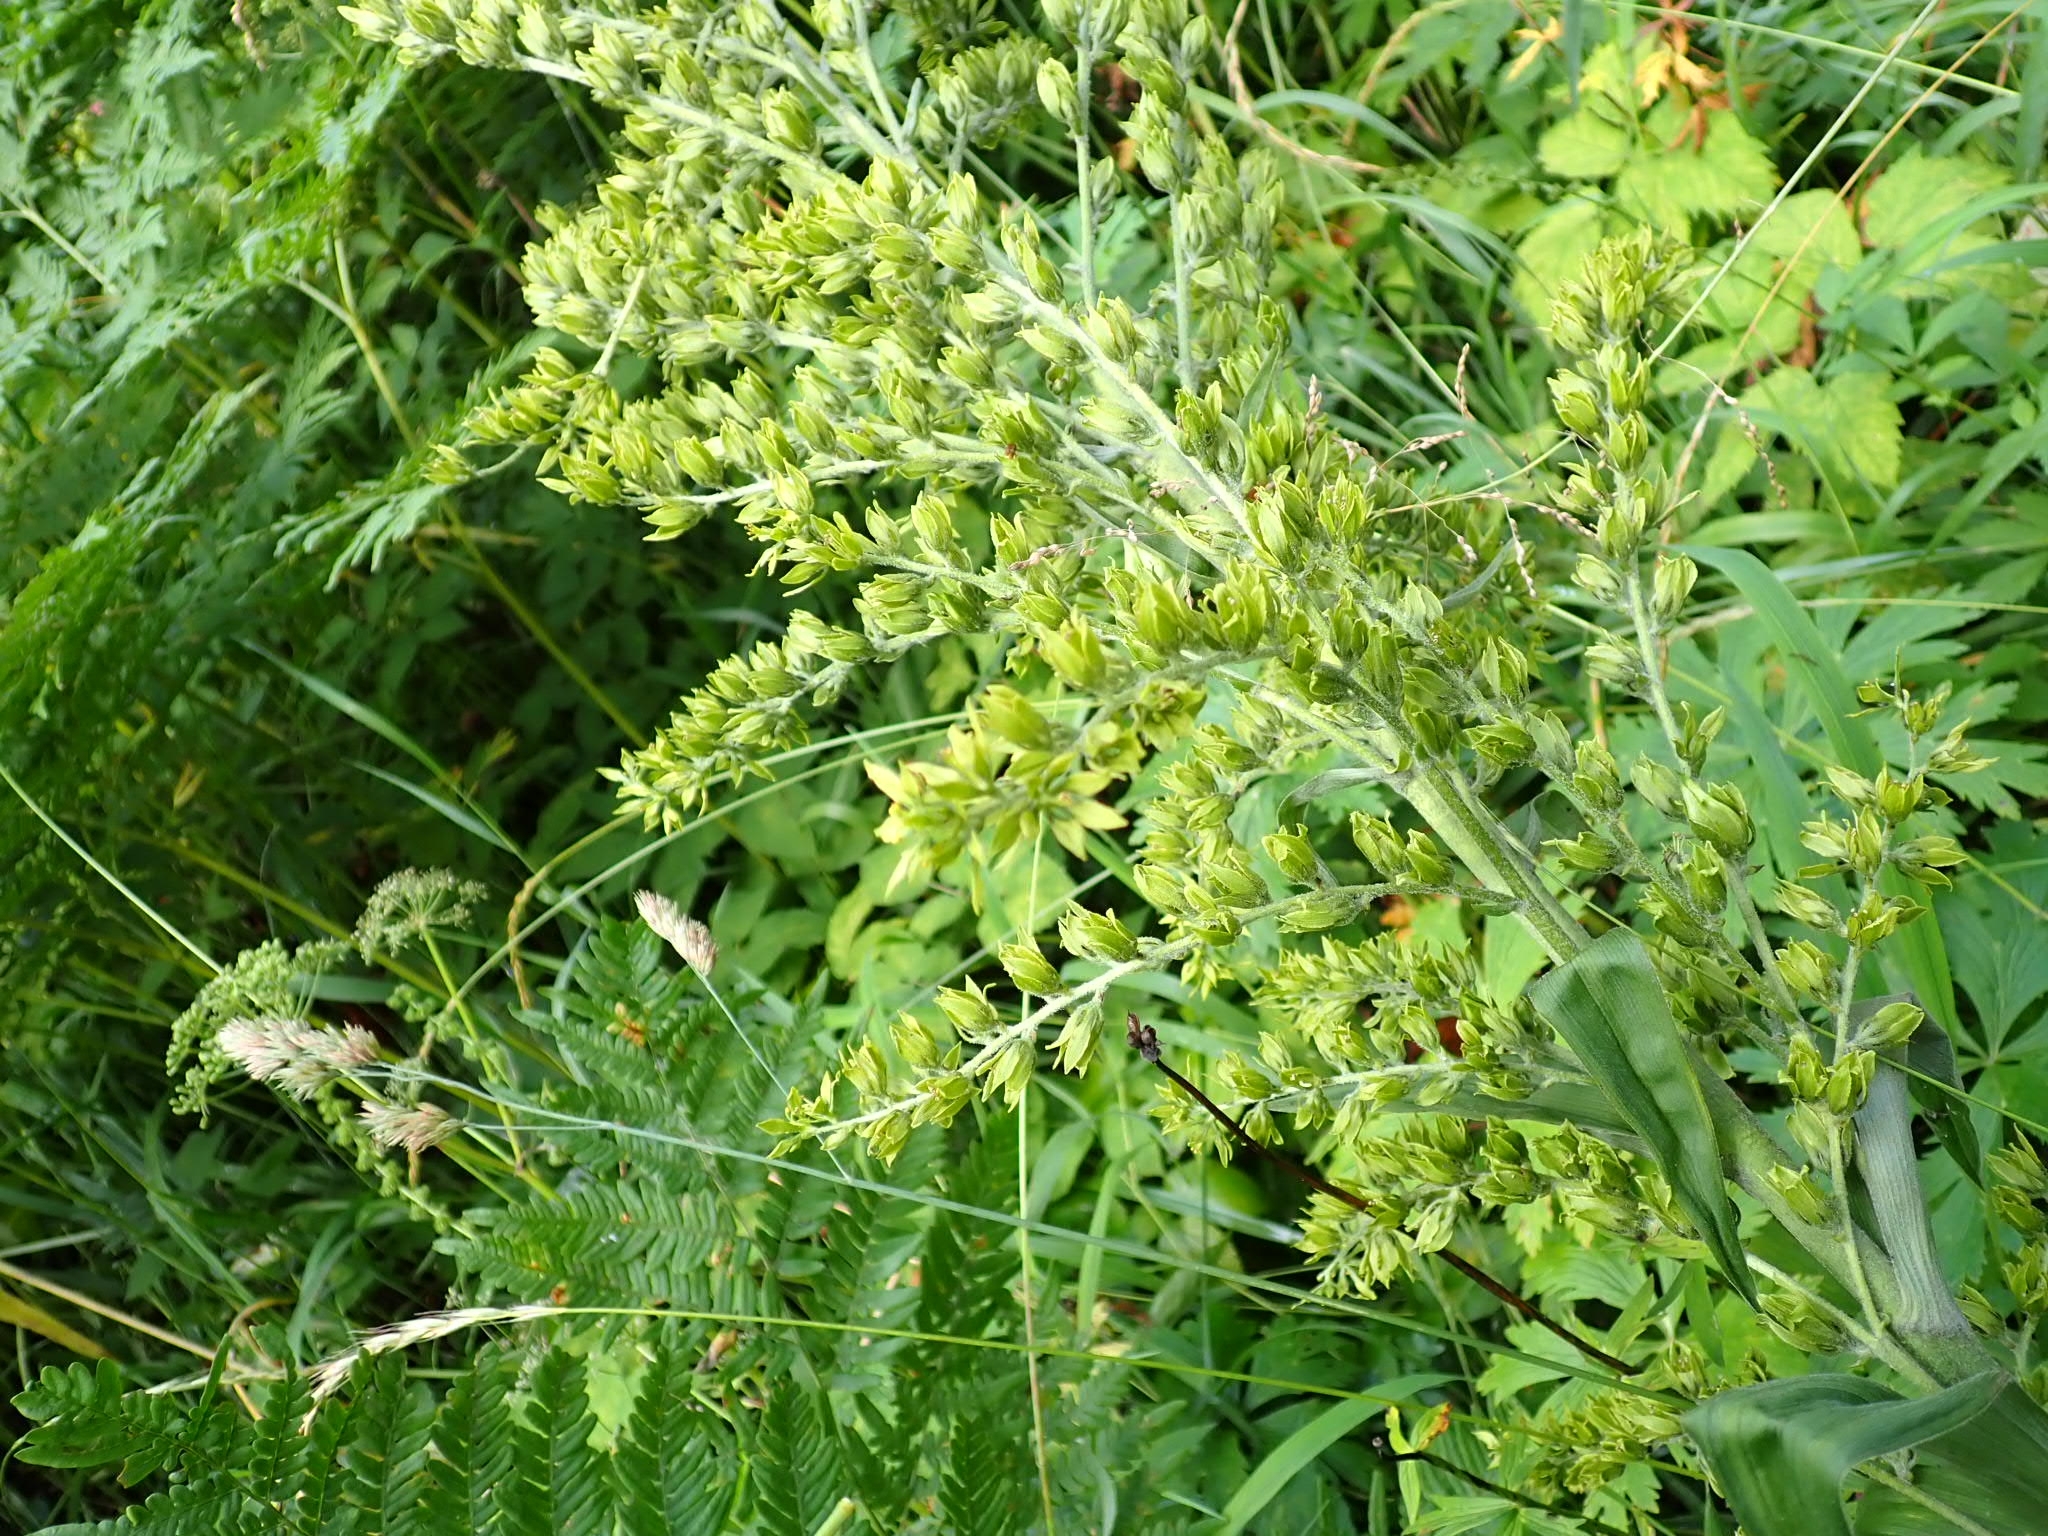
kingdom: Plantae
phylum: Tracheophyta
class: Liliopsida
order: Liliales
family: Melanthiaceae
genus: Veratrum
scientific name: Veratrum lobelianum
